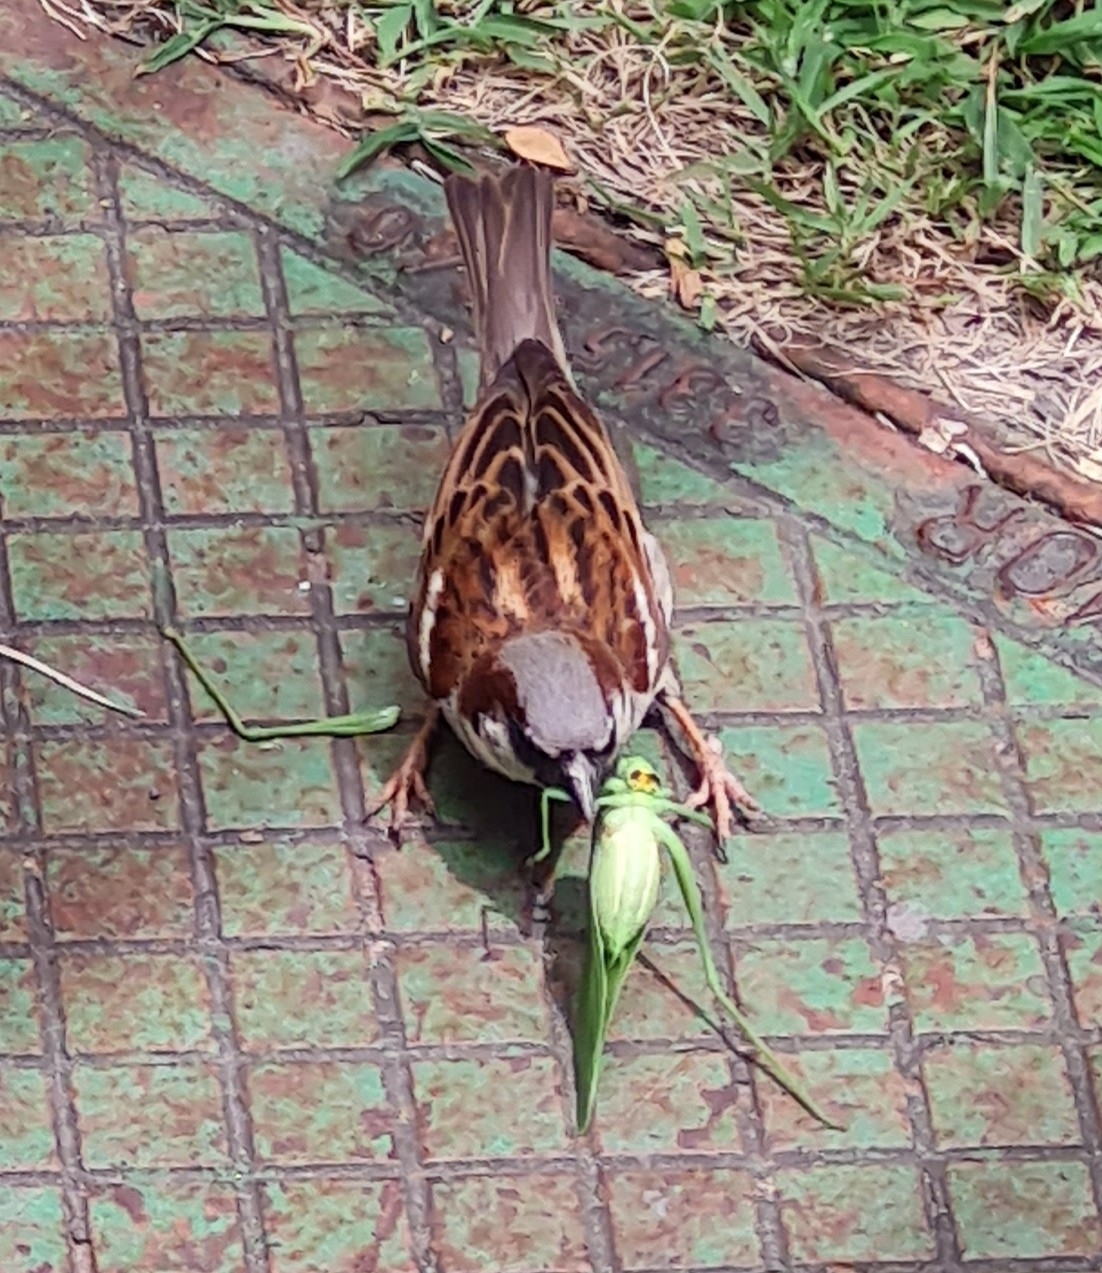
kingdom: Animalia
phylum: Chordata
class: Aves
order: Passeriformes
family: Passeridae
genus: Passer
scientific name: Passer domesticus
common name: House sparrow
